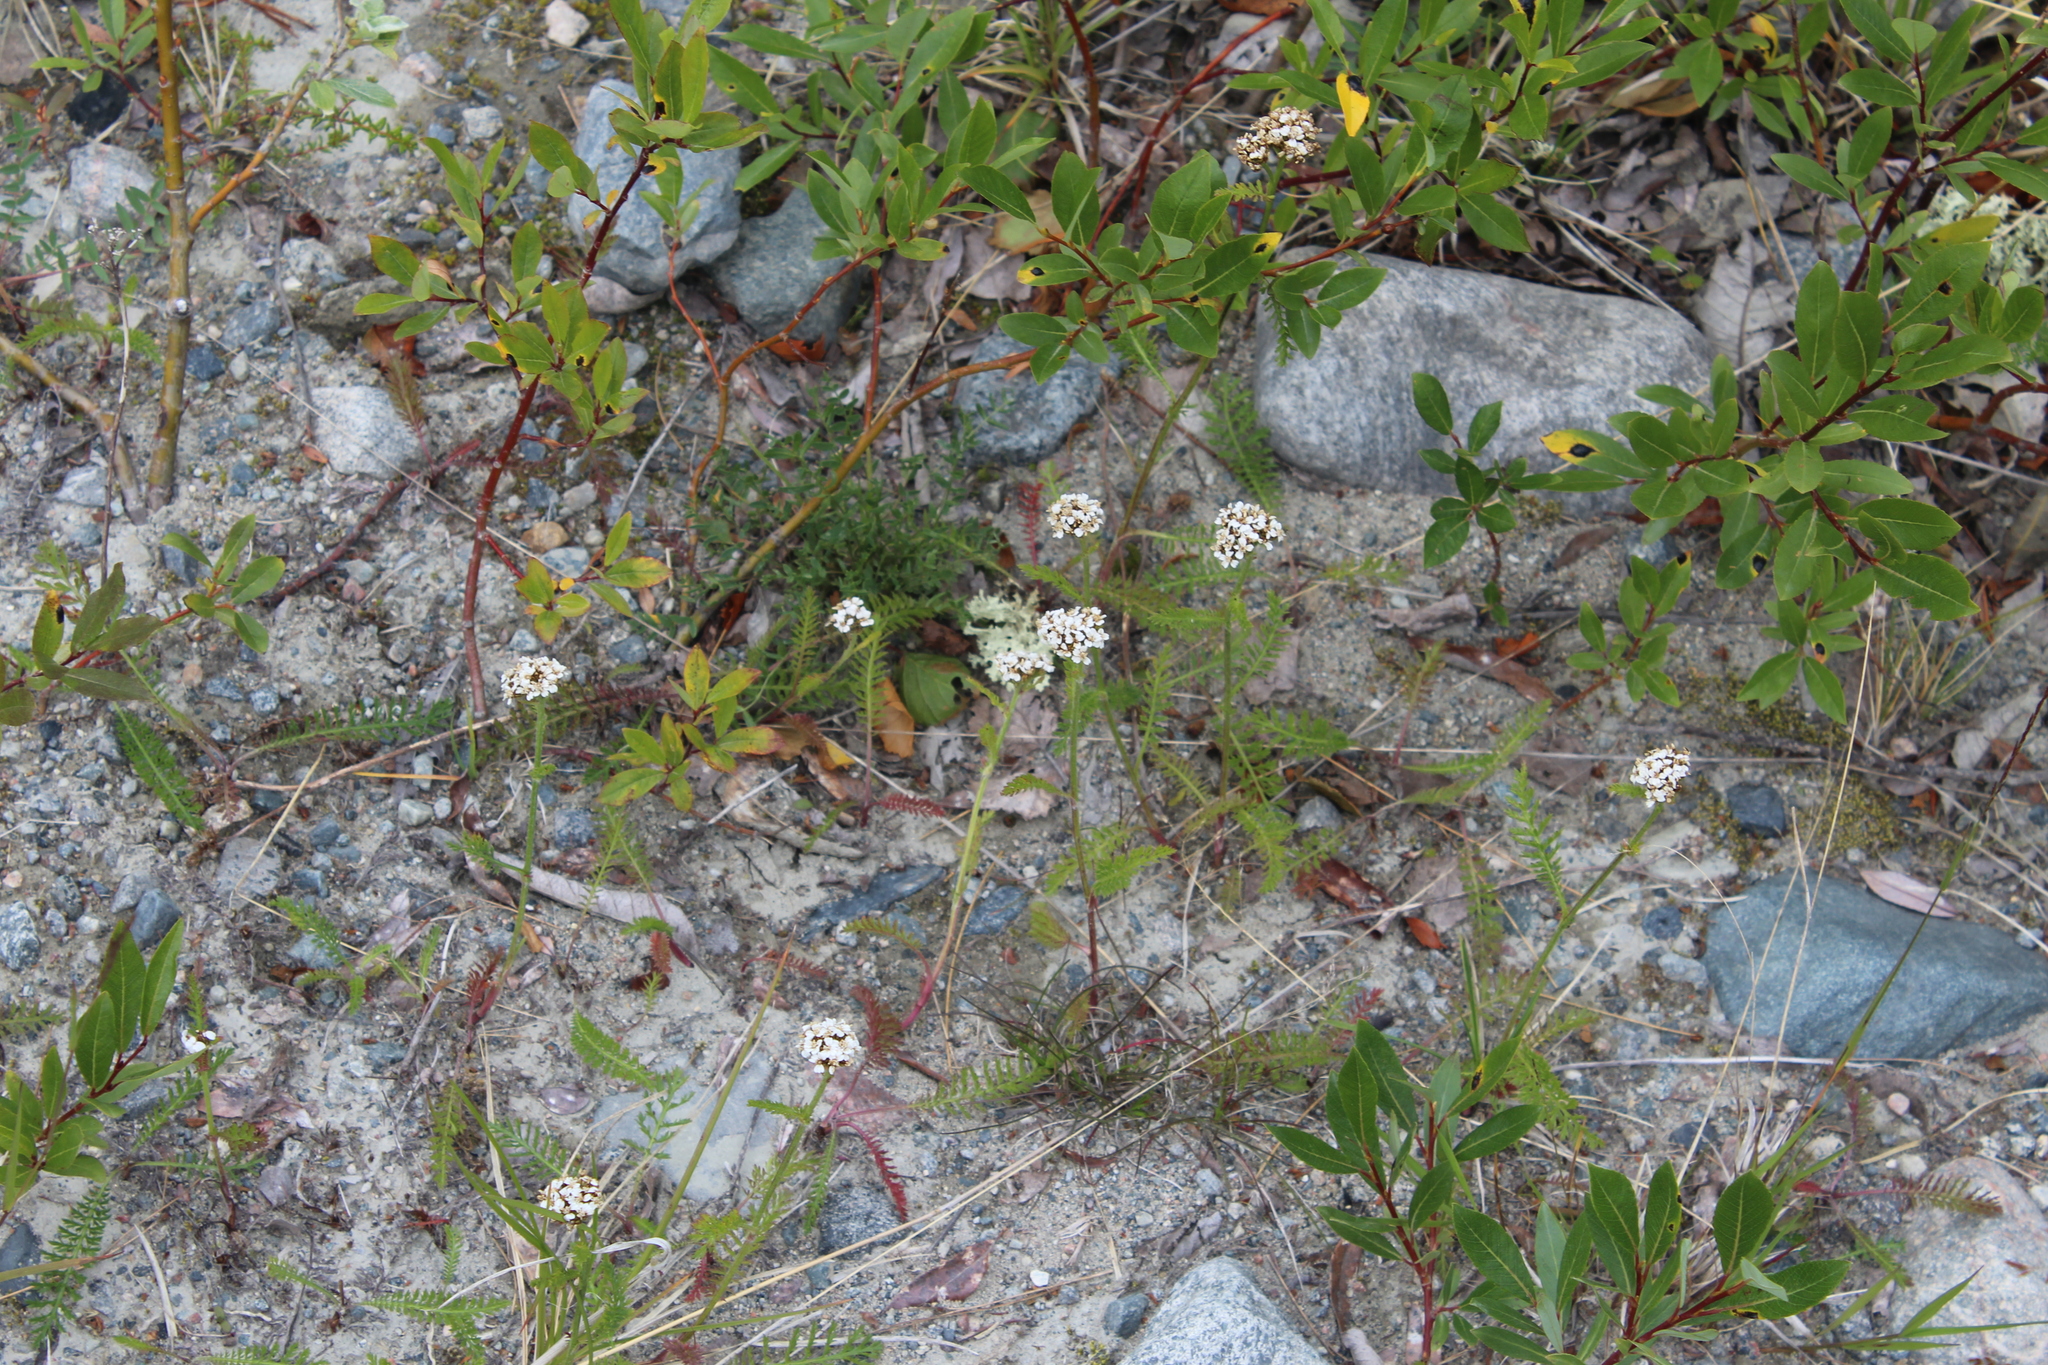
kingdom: Plantae
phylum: Tracheophyta
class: Magnoliopsida
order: Asterales
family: Asteraceae
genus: Achillea
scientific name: Achillea millefolium
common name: Yarrow
